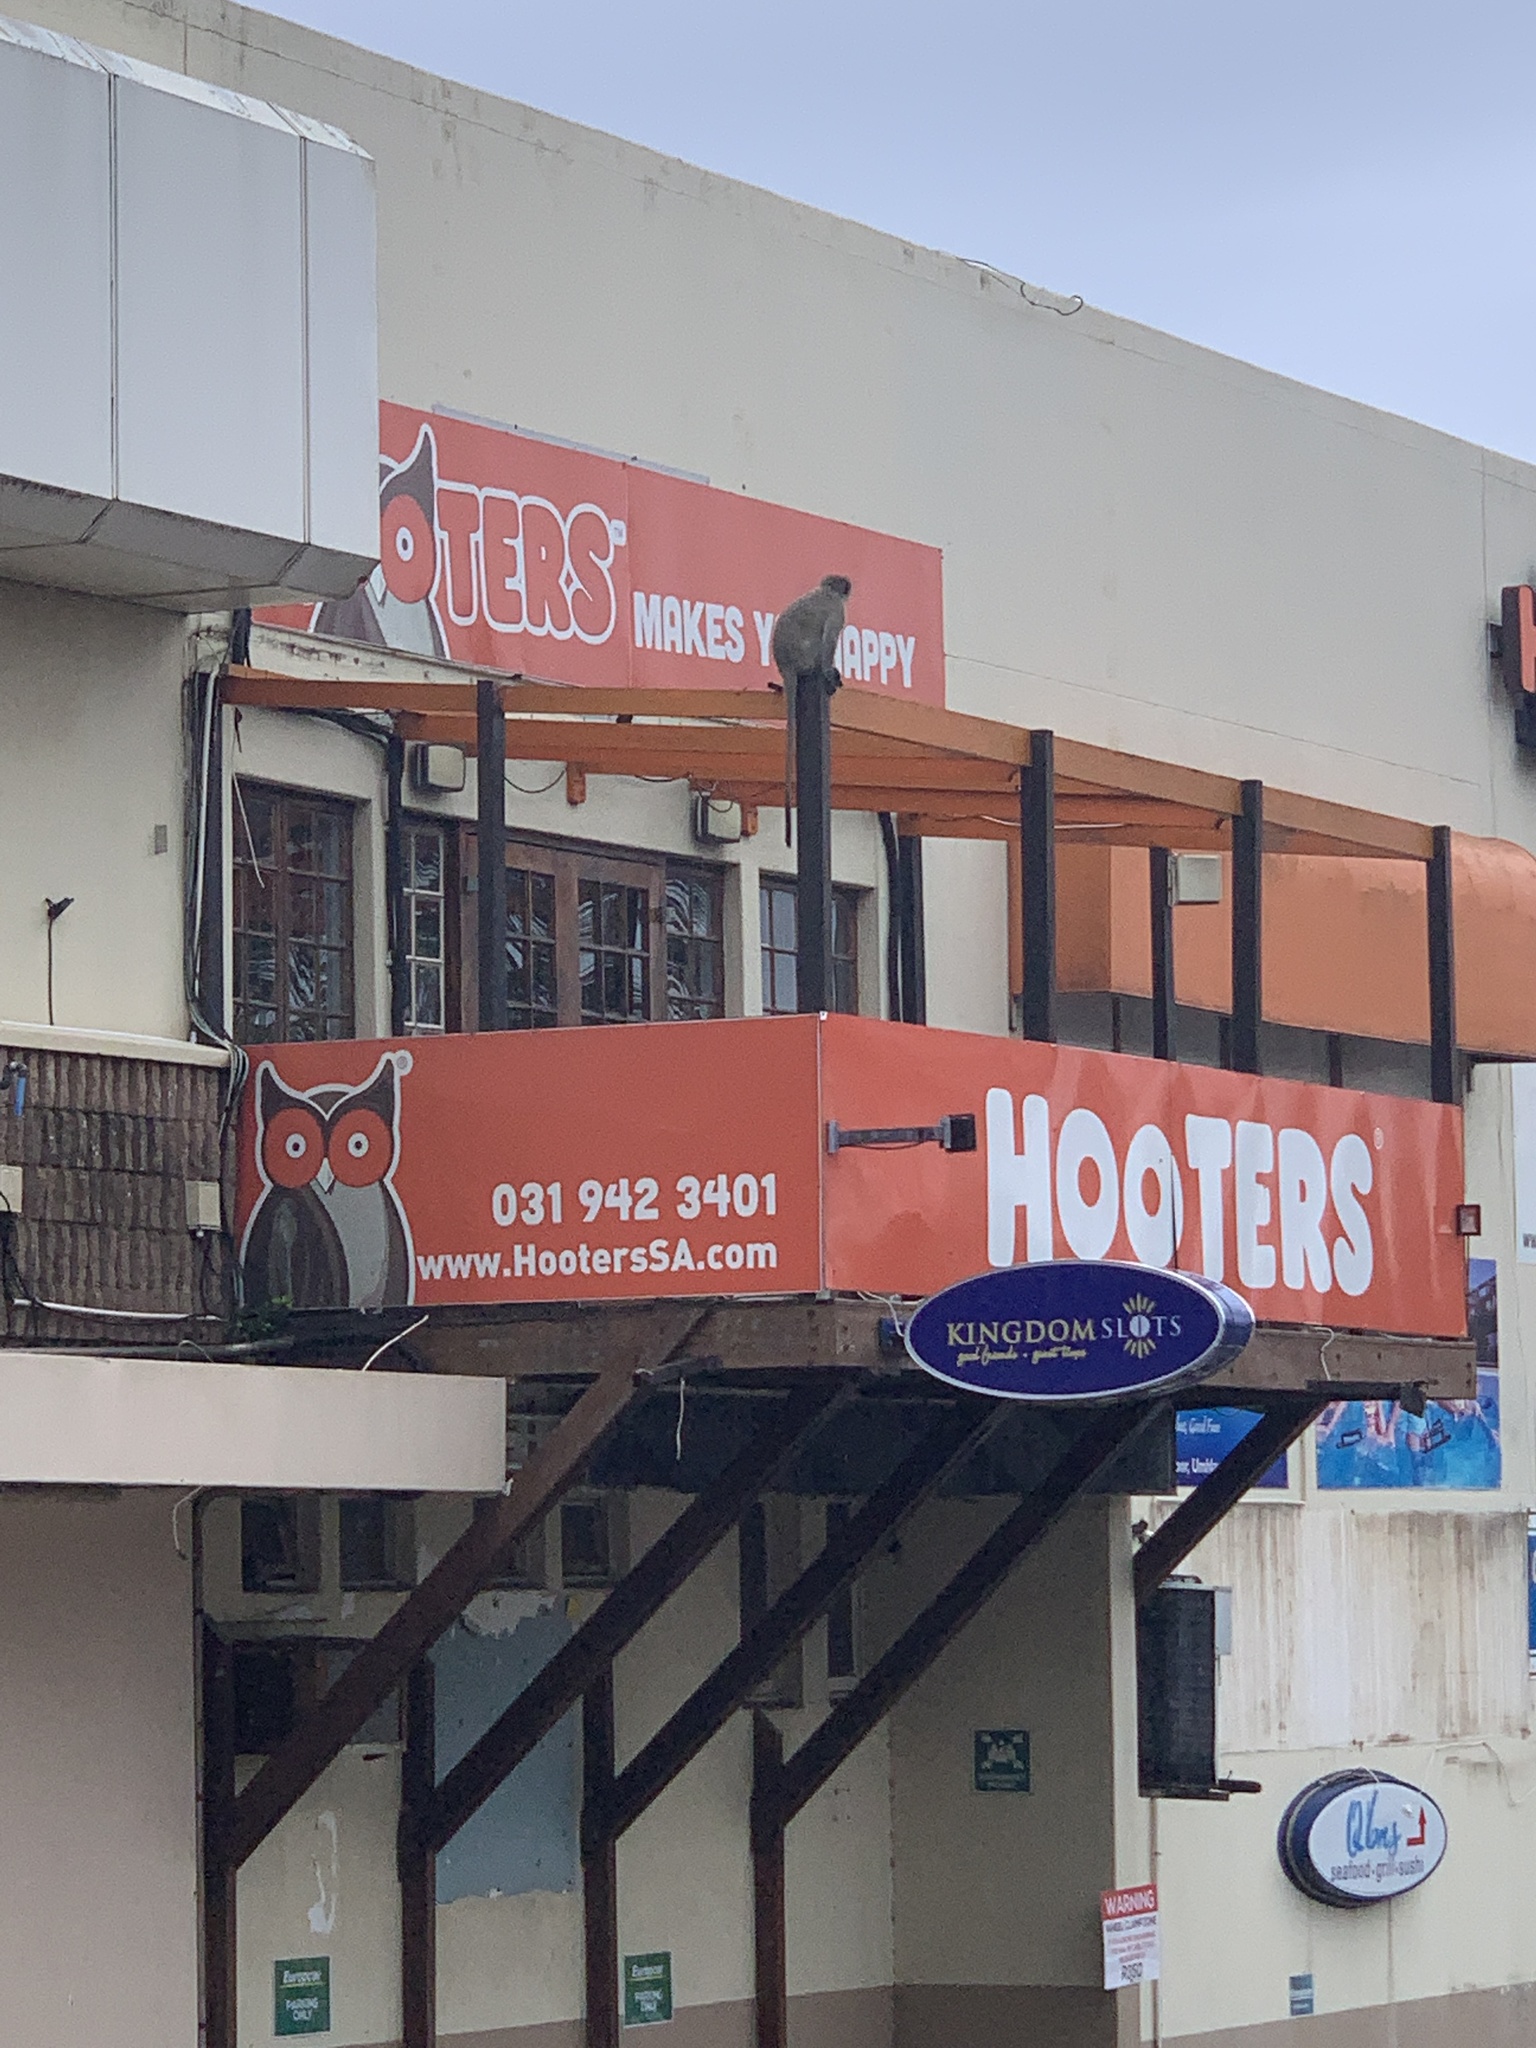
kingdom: Animalia
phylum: Chordata
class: Mammalia
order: Primates
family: Cercopithecidae
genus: Chlorocebus
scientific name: Chlorocebus pygerythrus
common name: Vervet monkey
